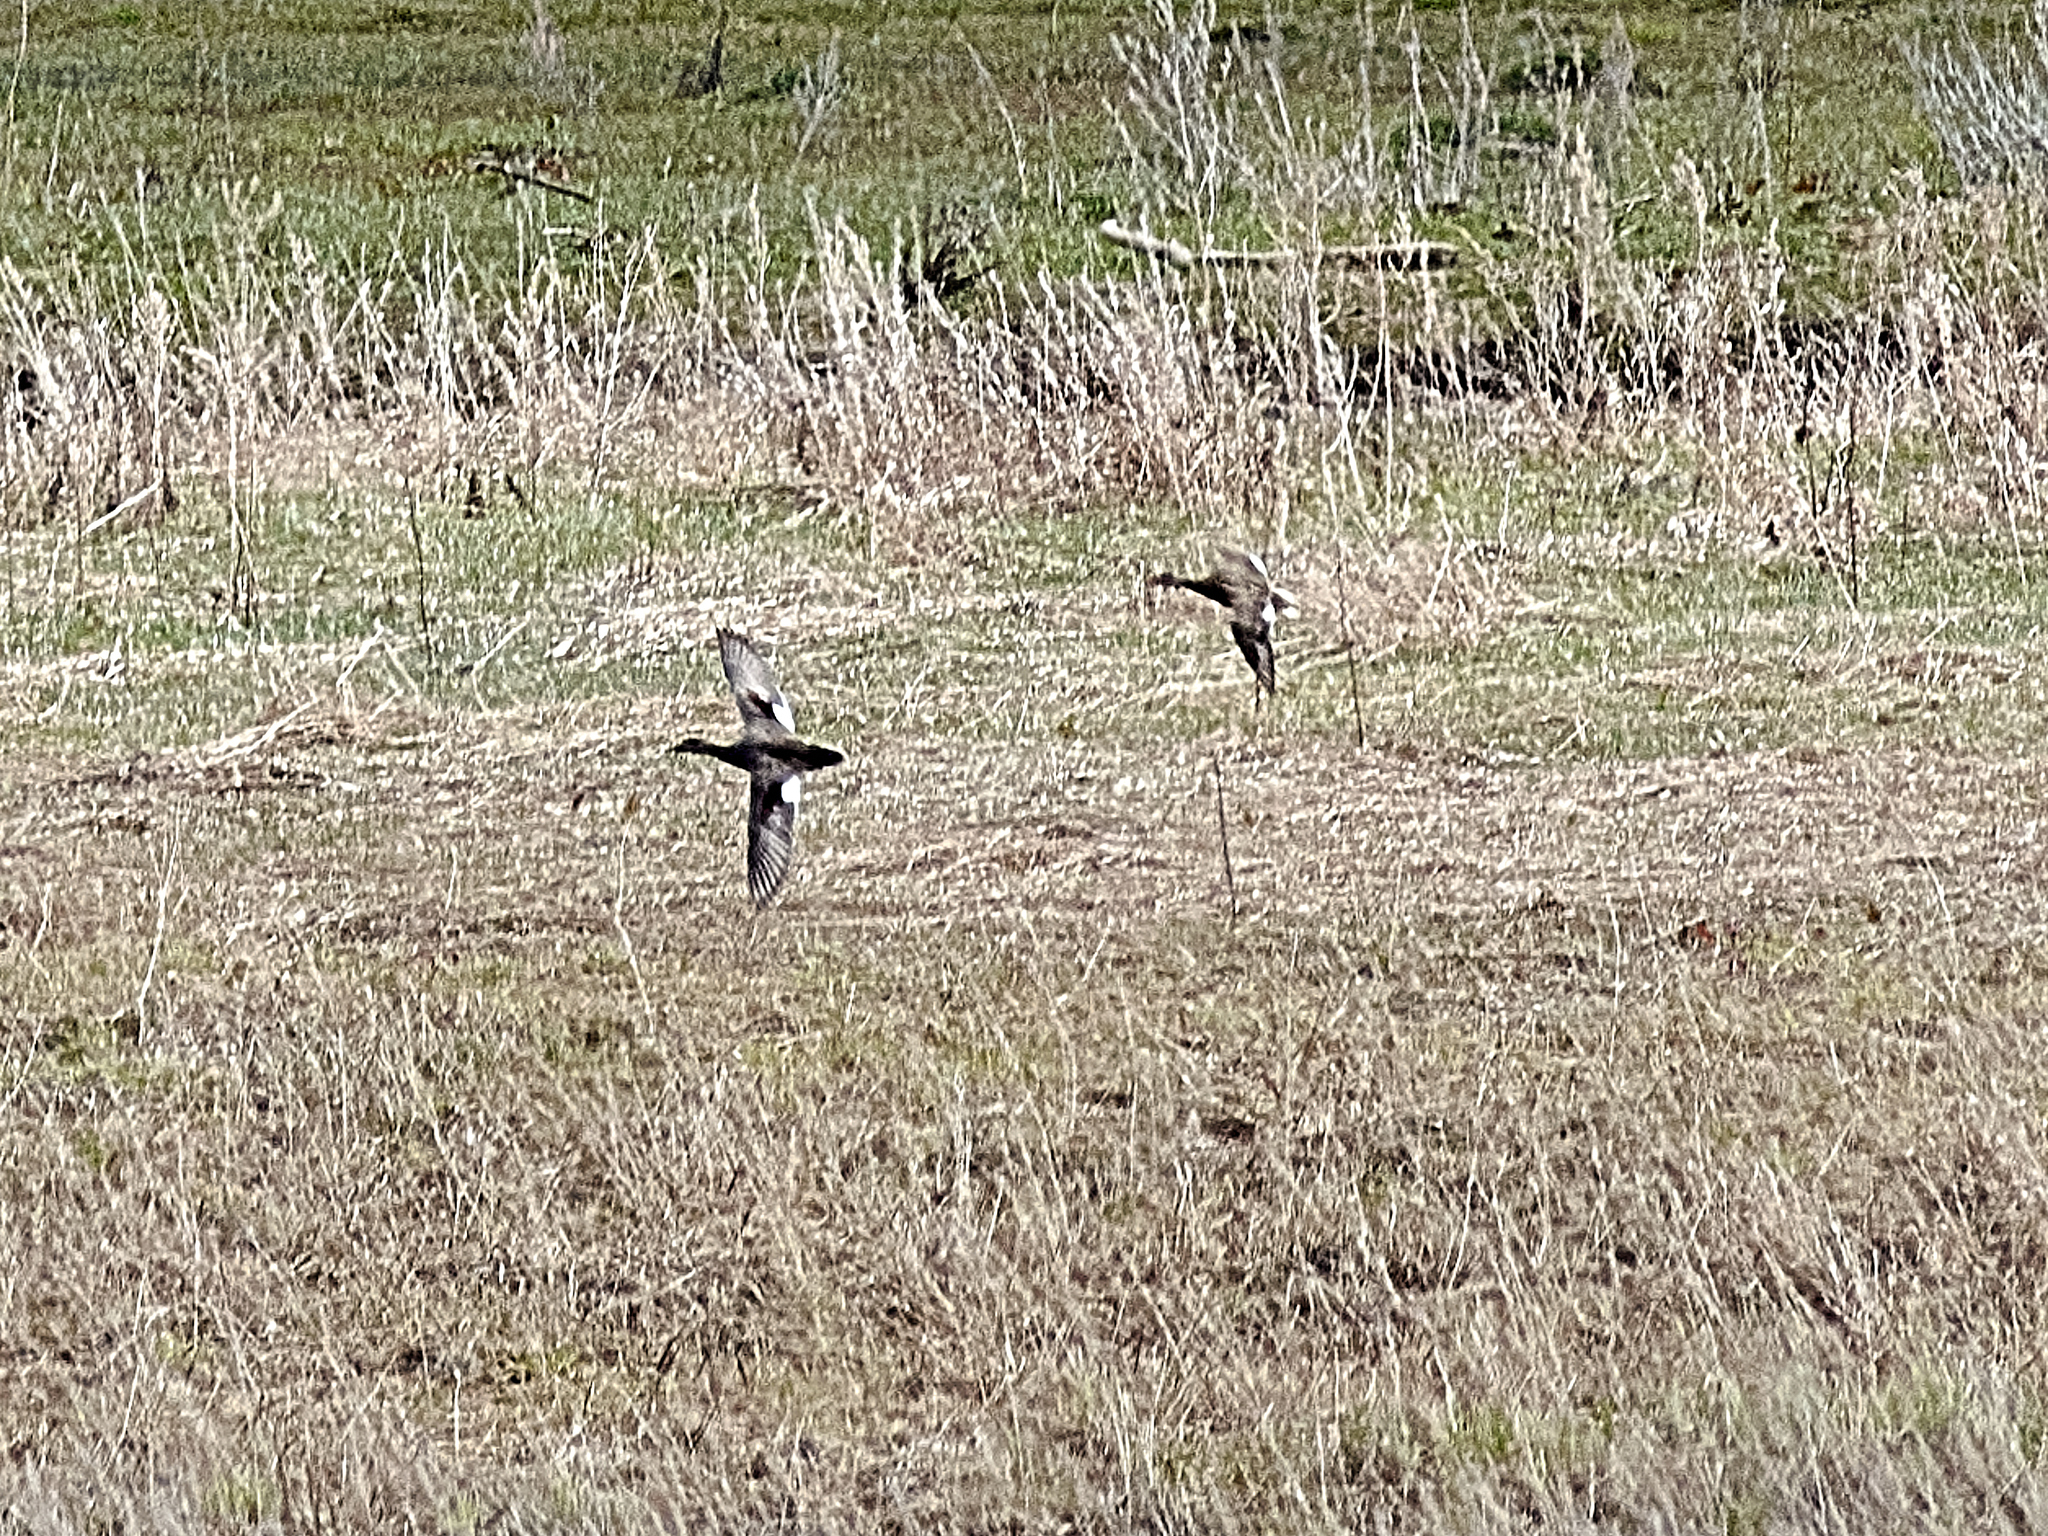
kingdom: Animalia
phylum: Chordata
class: Aves
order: Anseriformes
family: Anatidae
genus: Mareca
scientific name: Mareca strepera
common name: Gadwall
